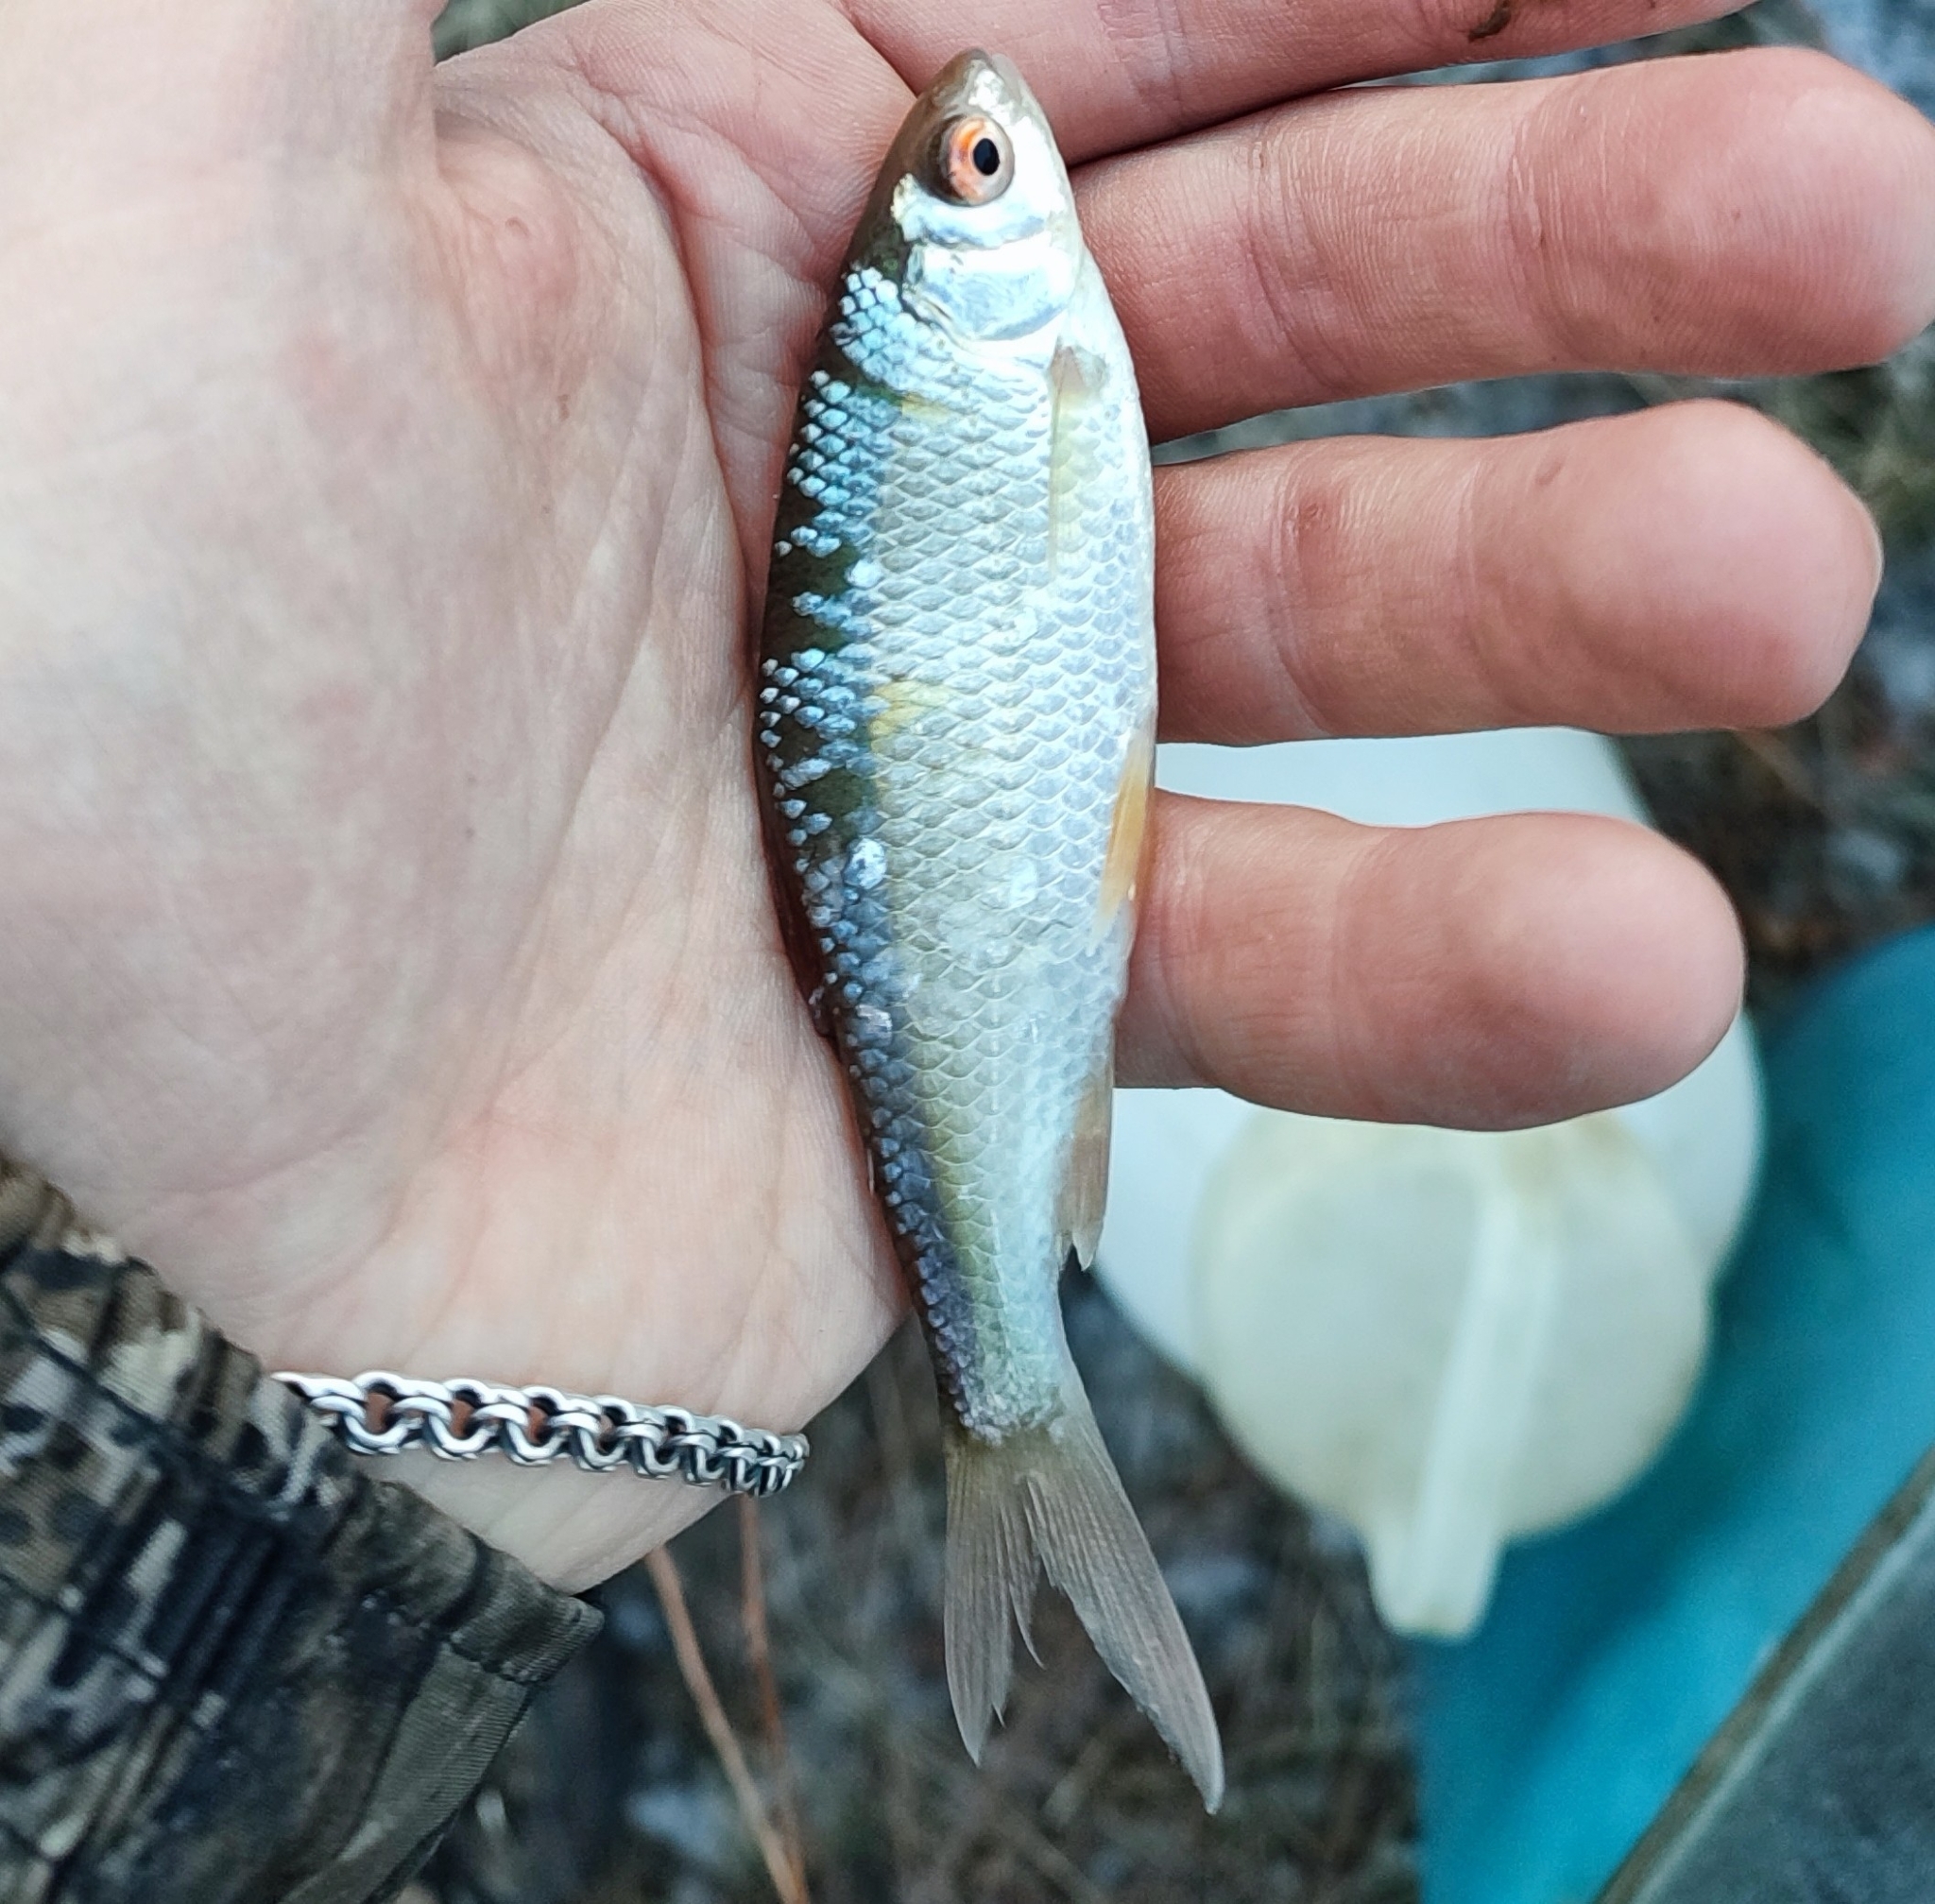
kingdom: Animalia
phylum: Chordata
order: Cypriniformes
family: Cyprinidae
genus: Rutilus
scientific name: Rutilus rutilus
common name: Roach
